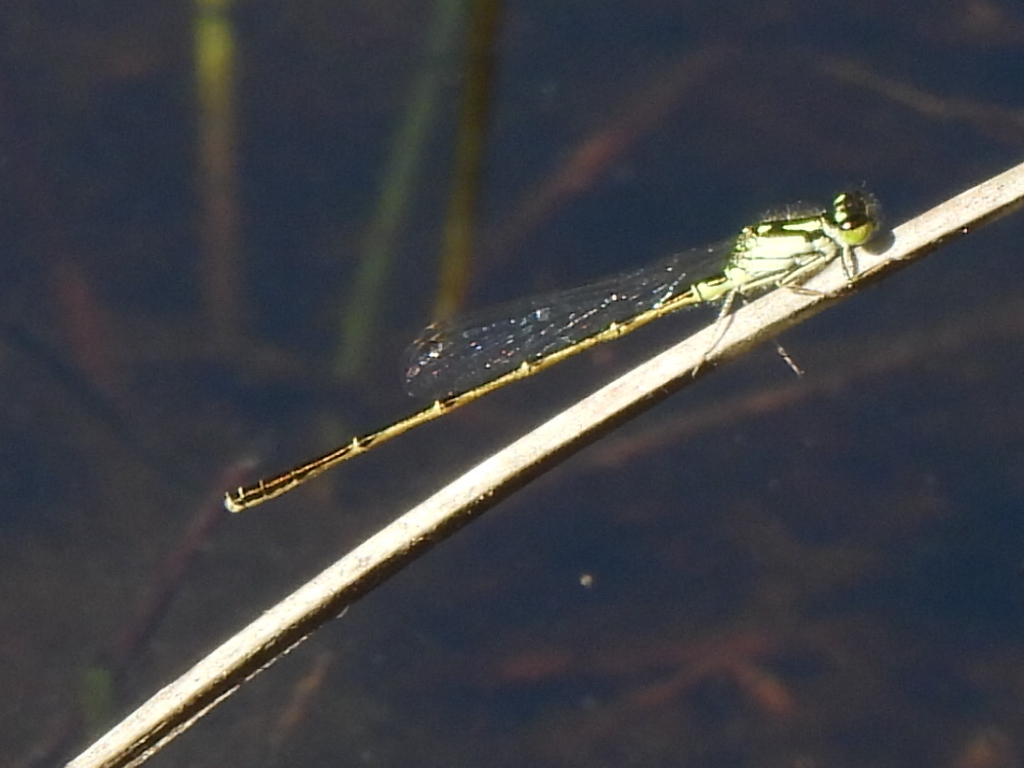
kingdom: Animalia
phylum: Arthropoda
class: Insecta
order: Odonata
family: Coenagrionidae
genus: Ischnura
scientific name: Ischnura posita
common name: Fragile forktail
